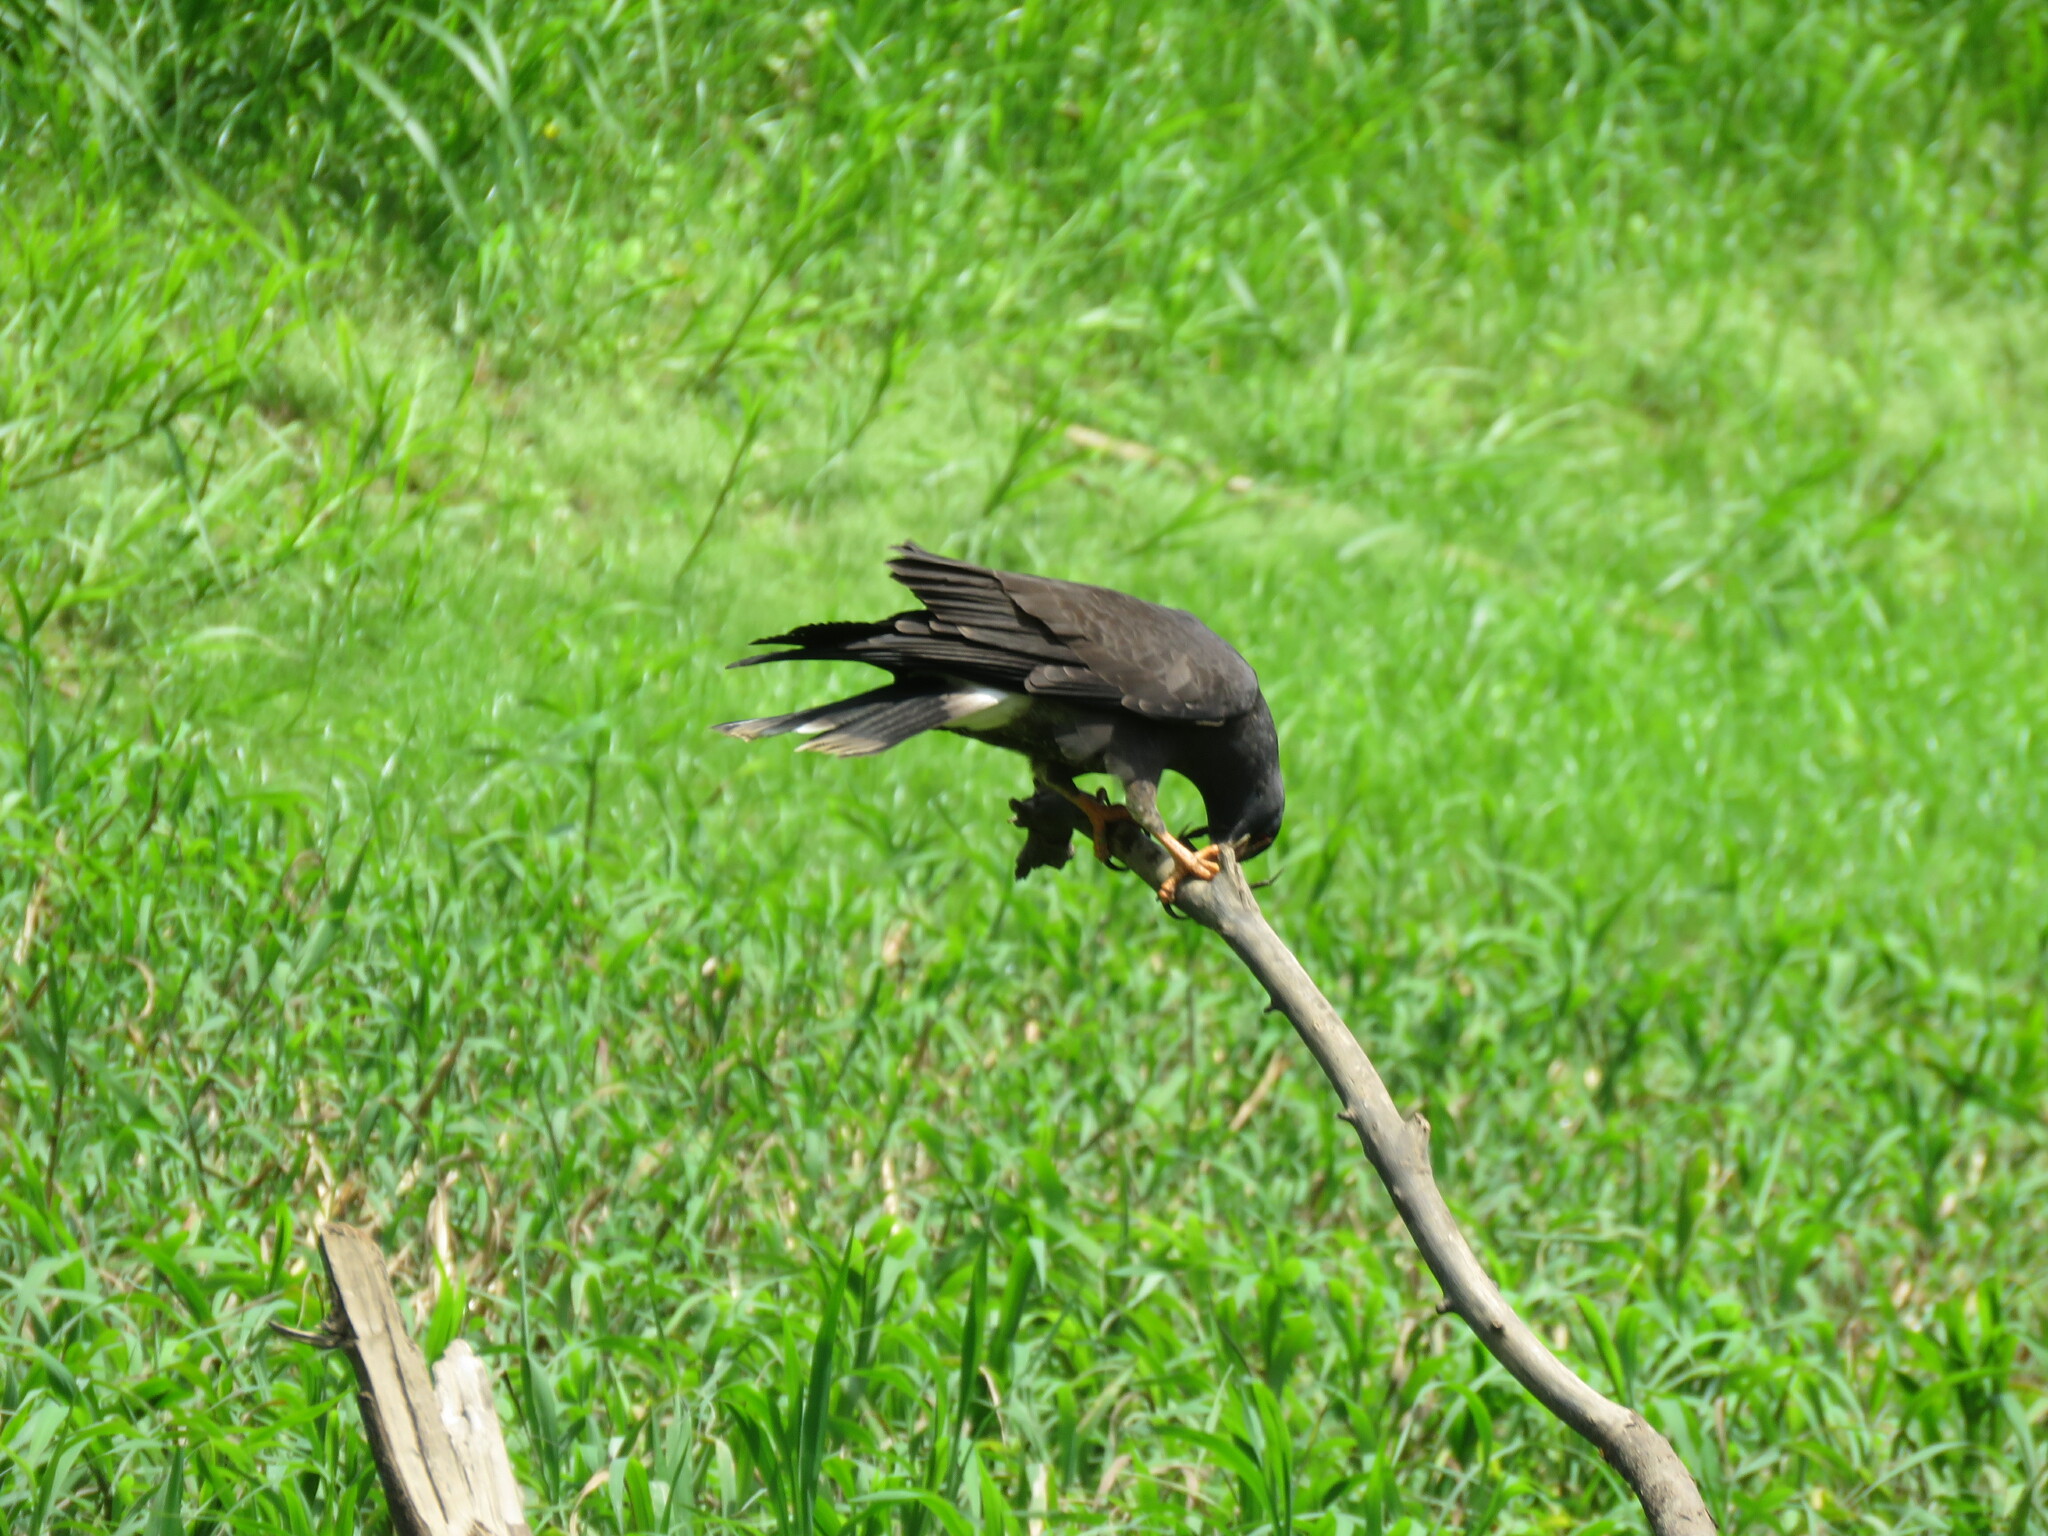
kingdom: Animalia
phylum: Chordata
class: Aves
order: Accipitriformes
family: Accipitridae
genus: Rostrhamus
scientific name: Rostrhamus sociabilis
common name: Snail kite
